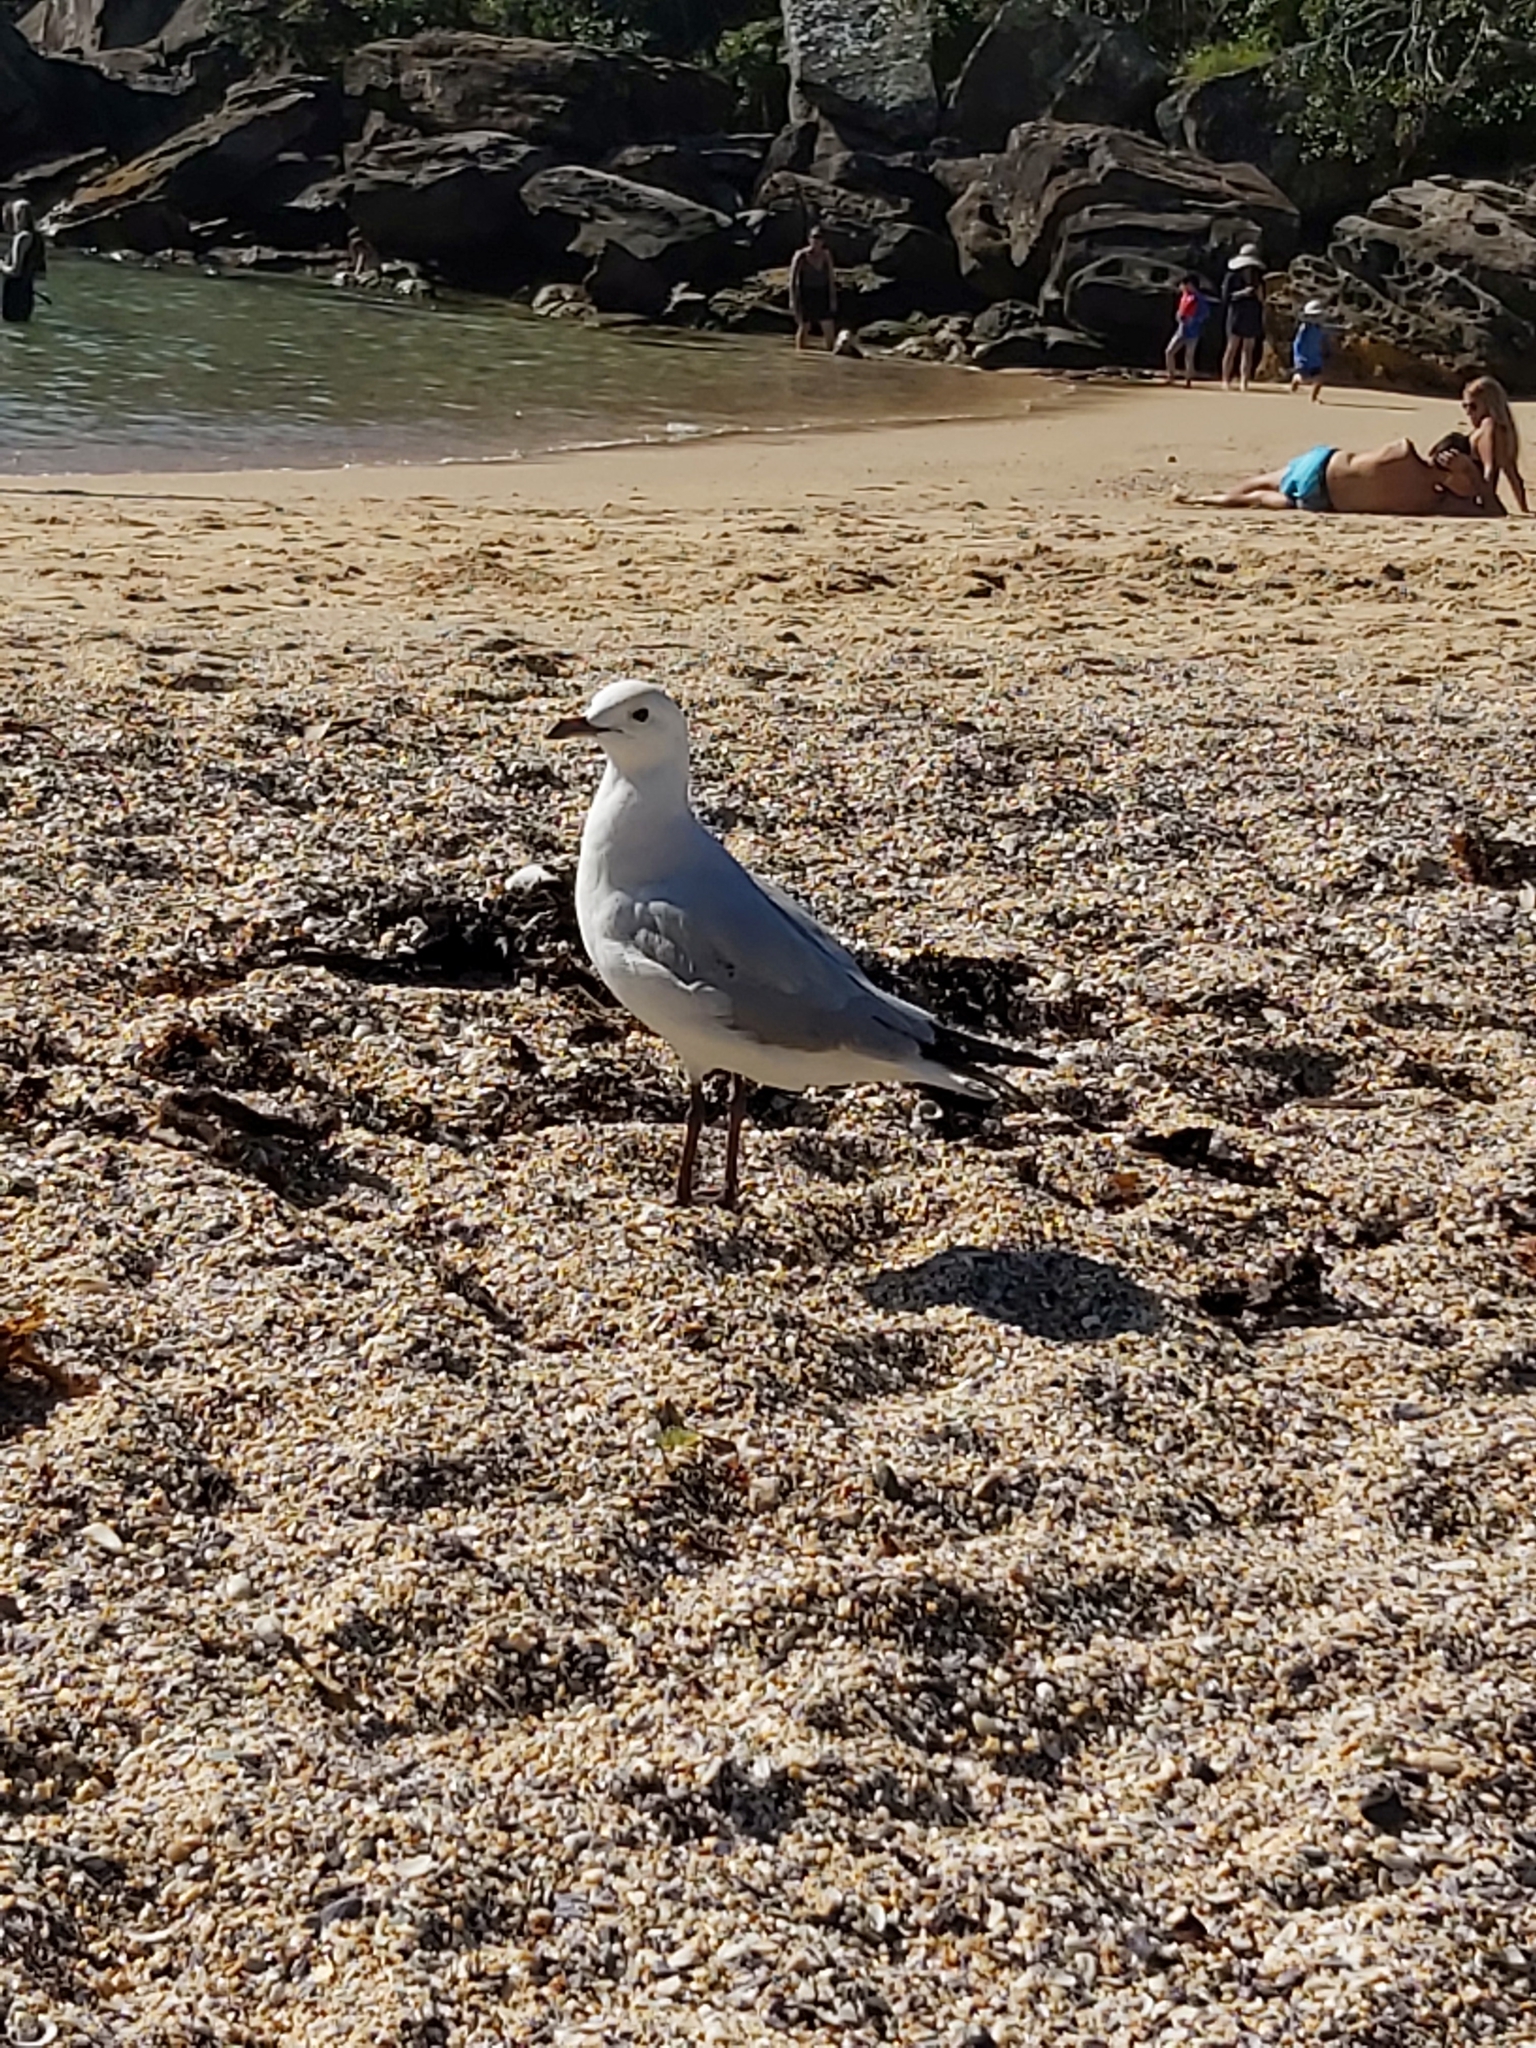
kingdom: Animalia
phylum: Chordata
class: Aves
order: Charadriiformes
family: Laridae
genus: Chroicocephalus
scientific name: Chroicocephalus novaehollandiae
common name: Silver gull
